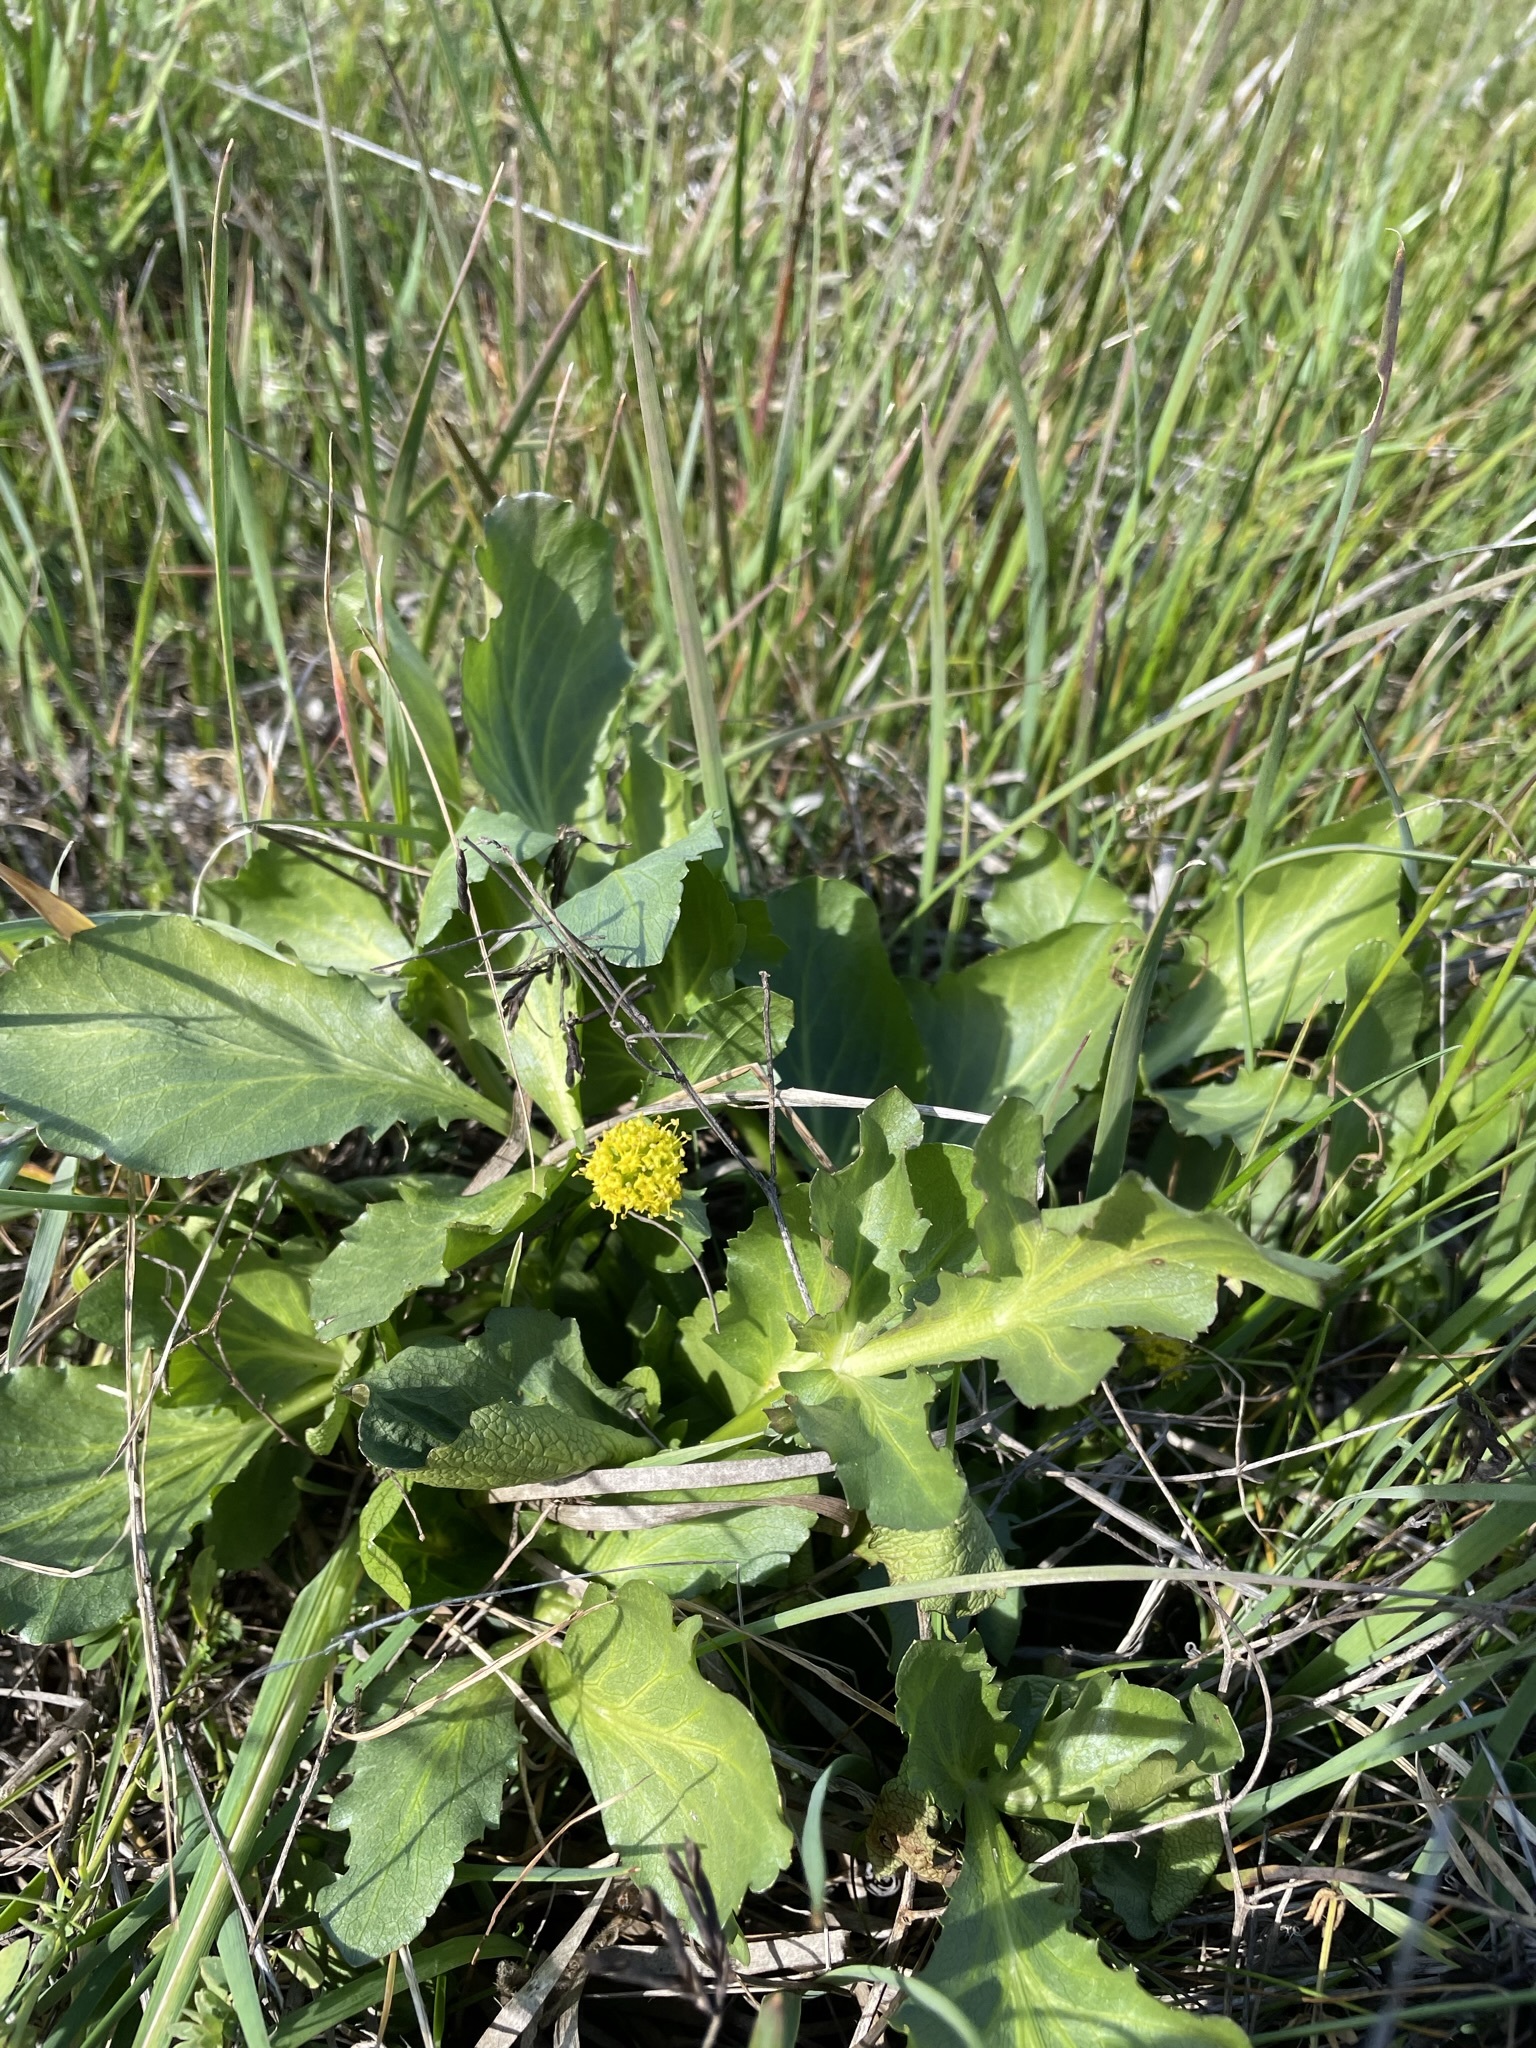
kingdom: Plantae
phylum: Tracheophyta
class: Magnoliopsida
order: Apiales
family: Apiaceae
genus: Sanicula
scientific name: Sanicula maritima
